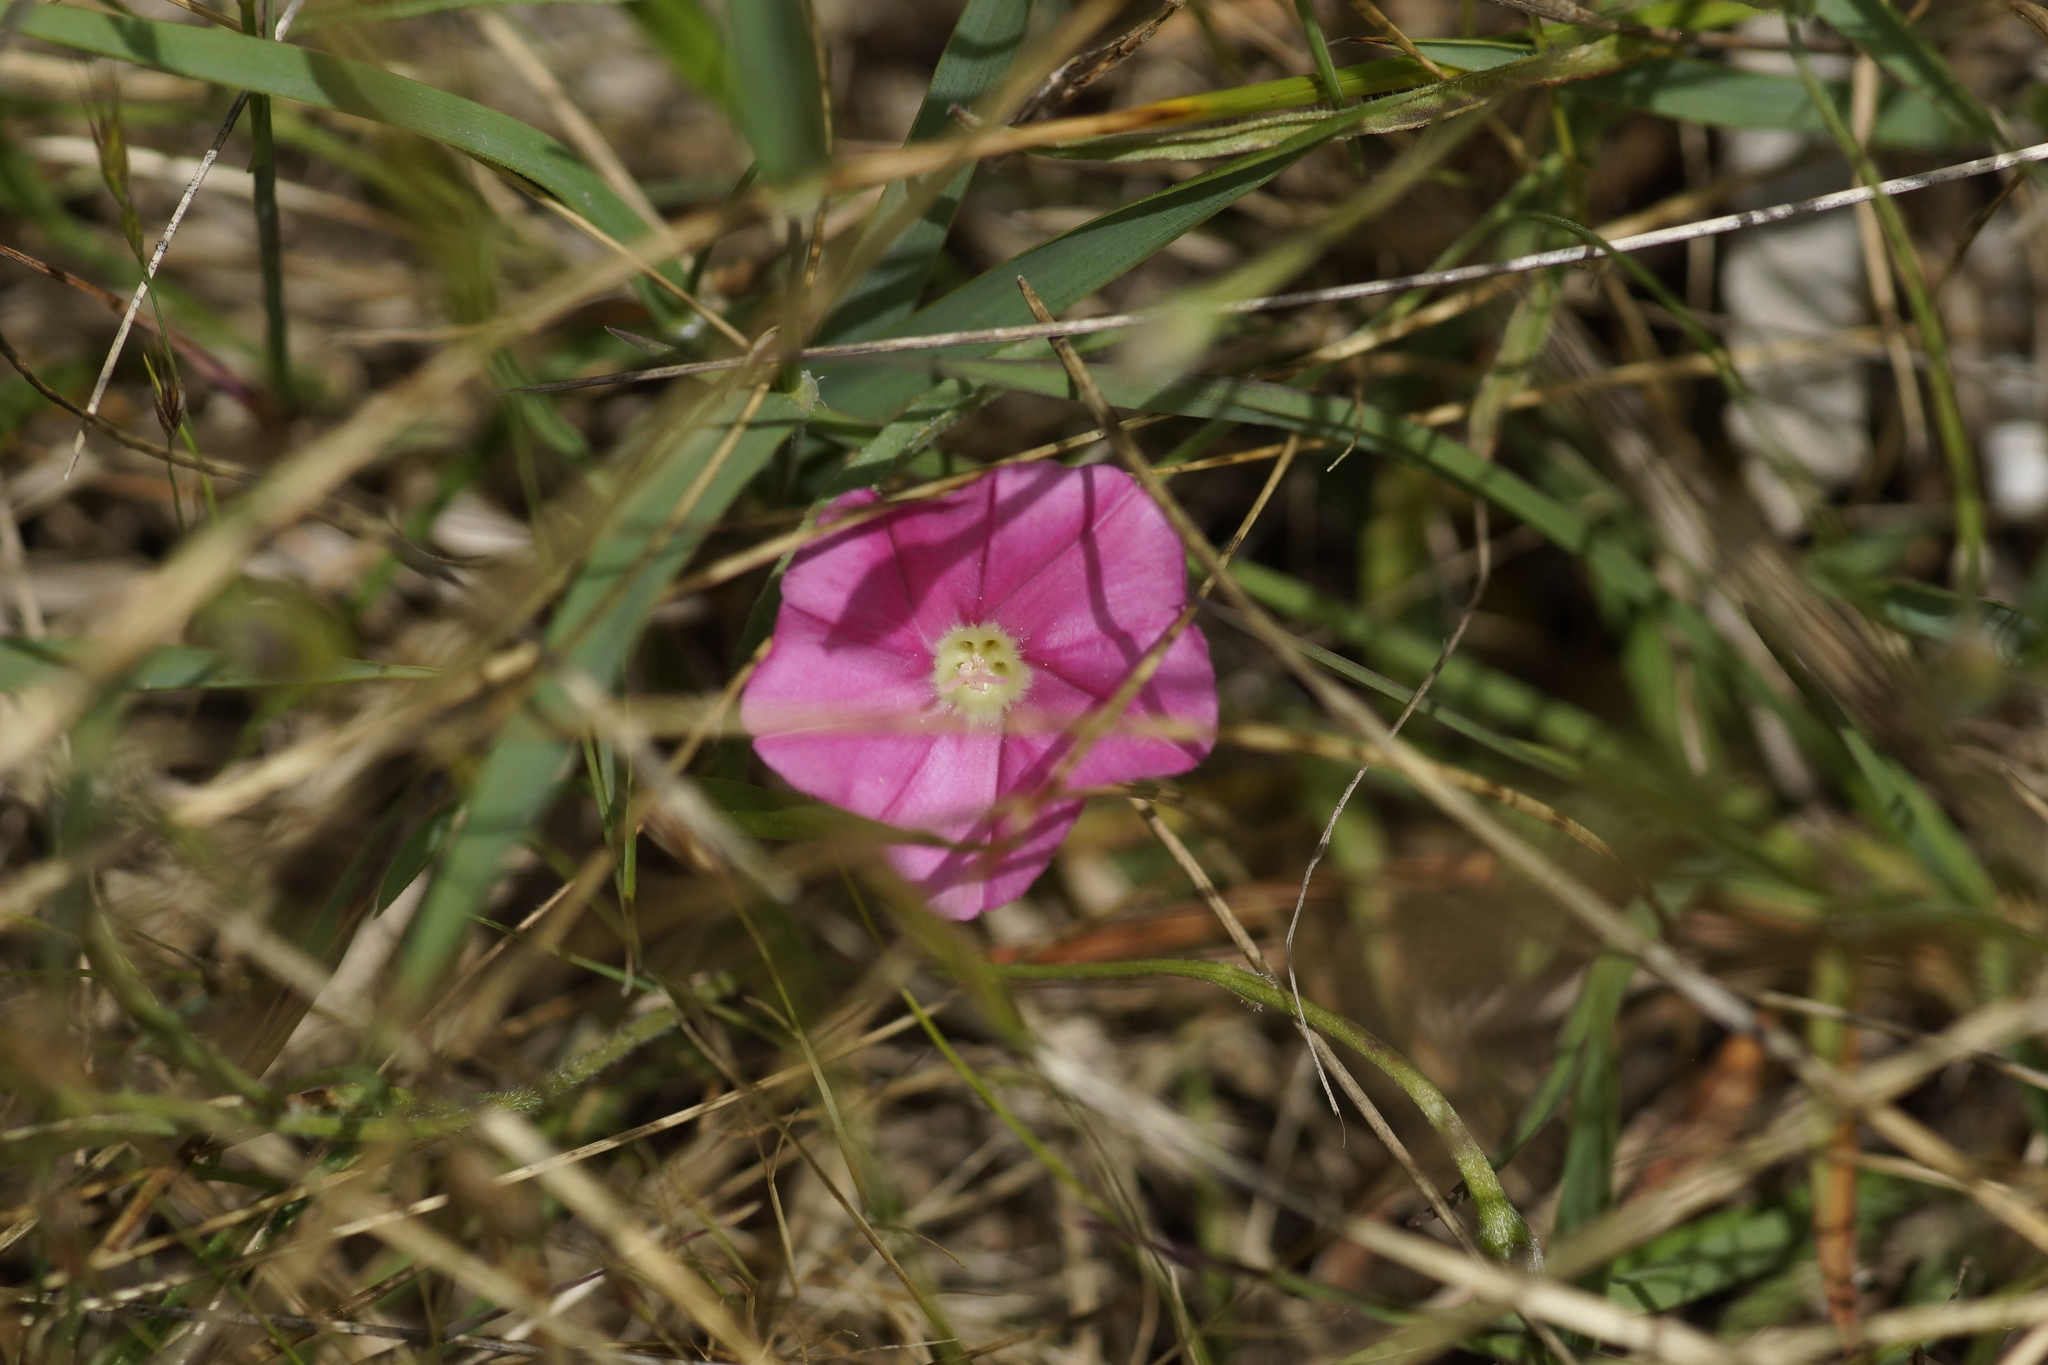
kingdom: Plantae
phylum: Tracheophyta
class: Magnoliopsida
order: Solanales
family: Convolvulaceae
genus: Convolvulus
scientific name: Convolvulus angustissimus
